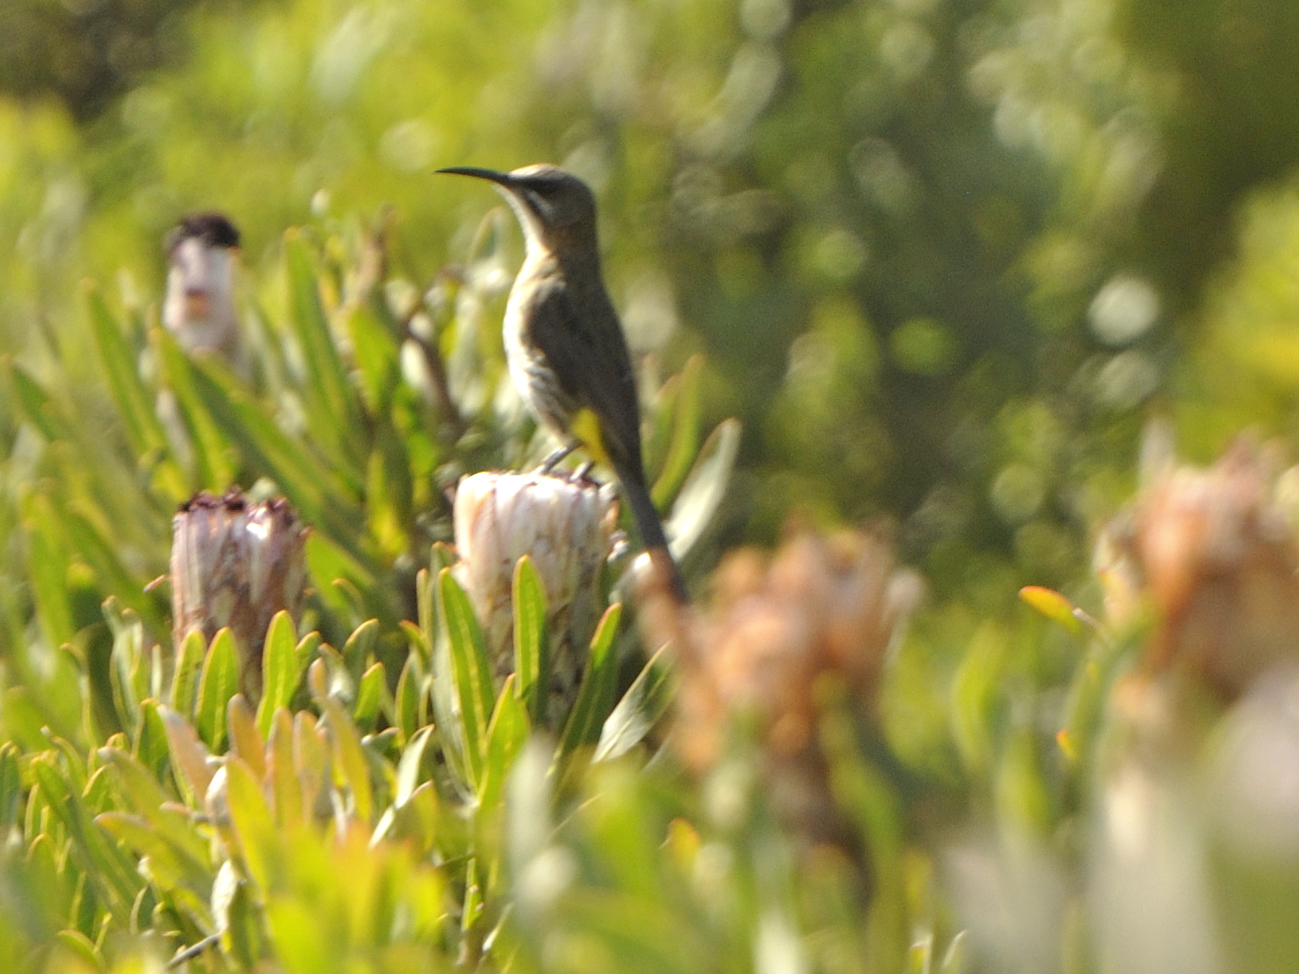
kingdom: Animalia
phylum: Chordata
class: Aves
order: Passeriformes
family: Promeropidae
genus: Promerops
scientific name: Promerops cafer
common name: Cape sugarbird
